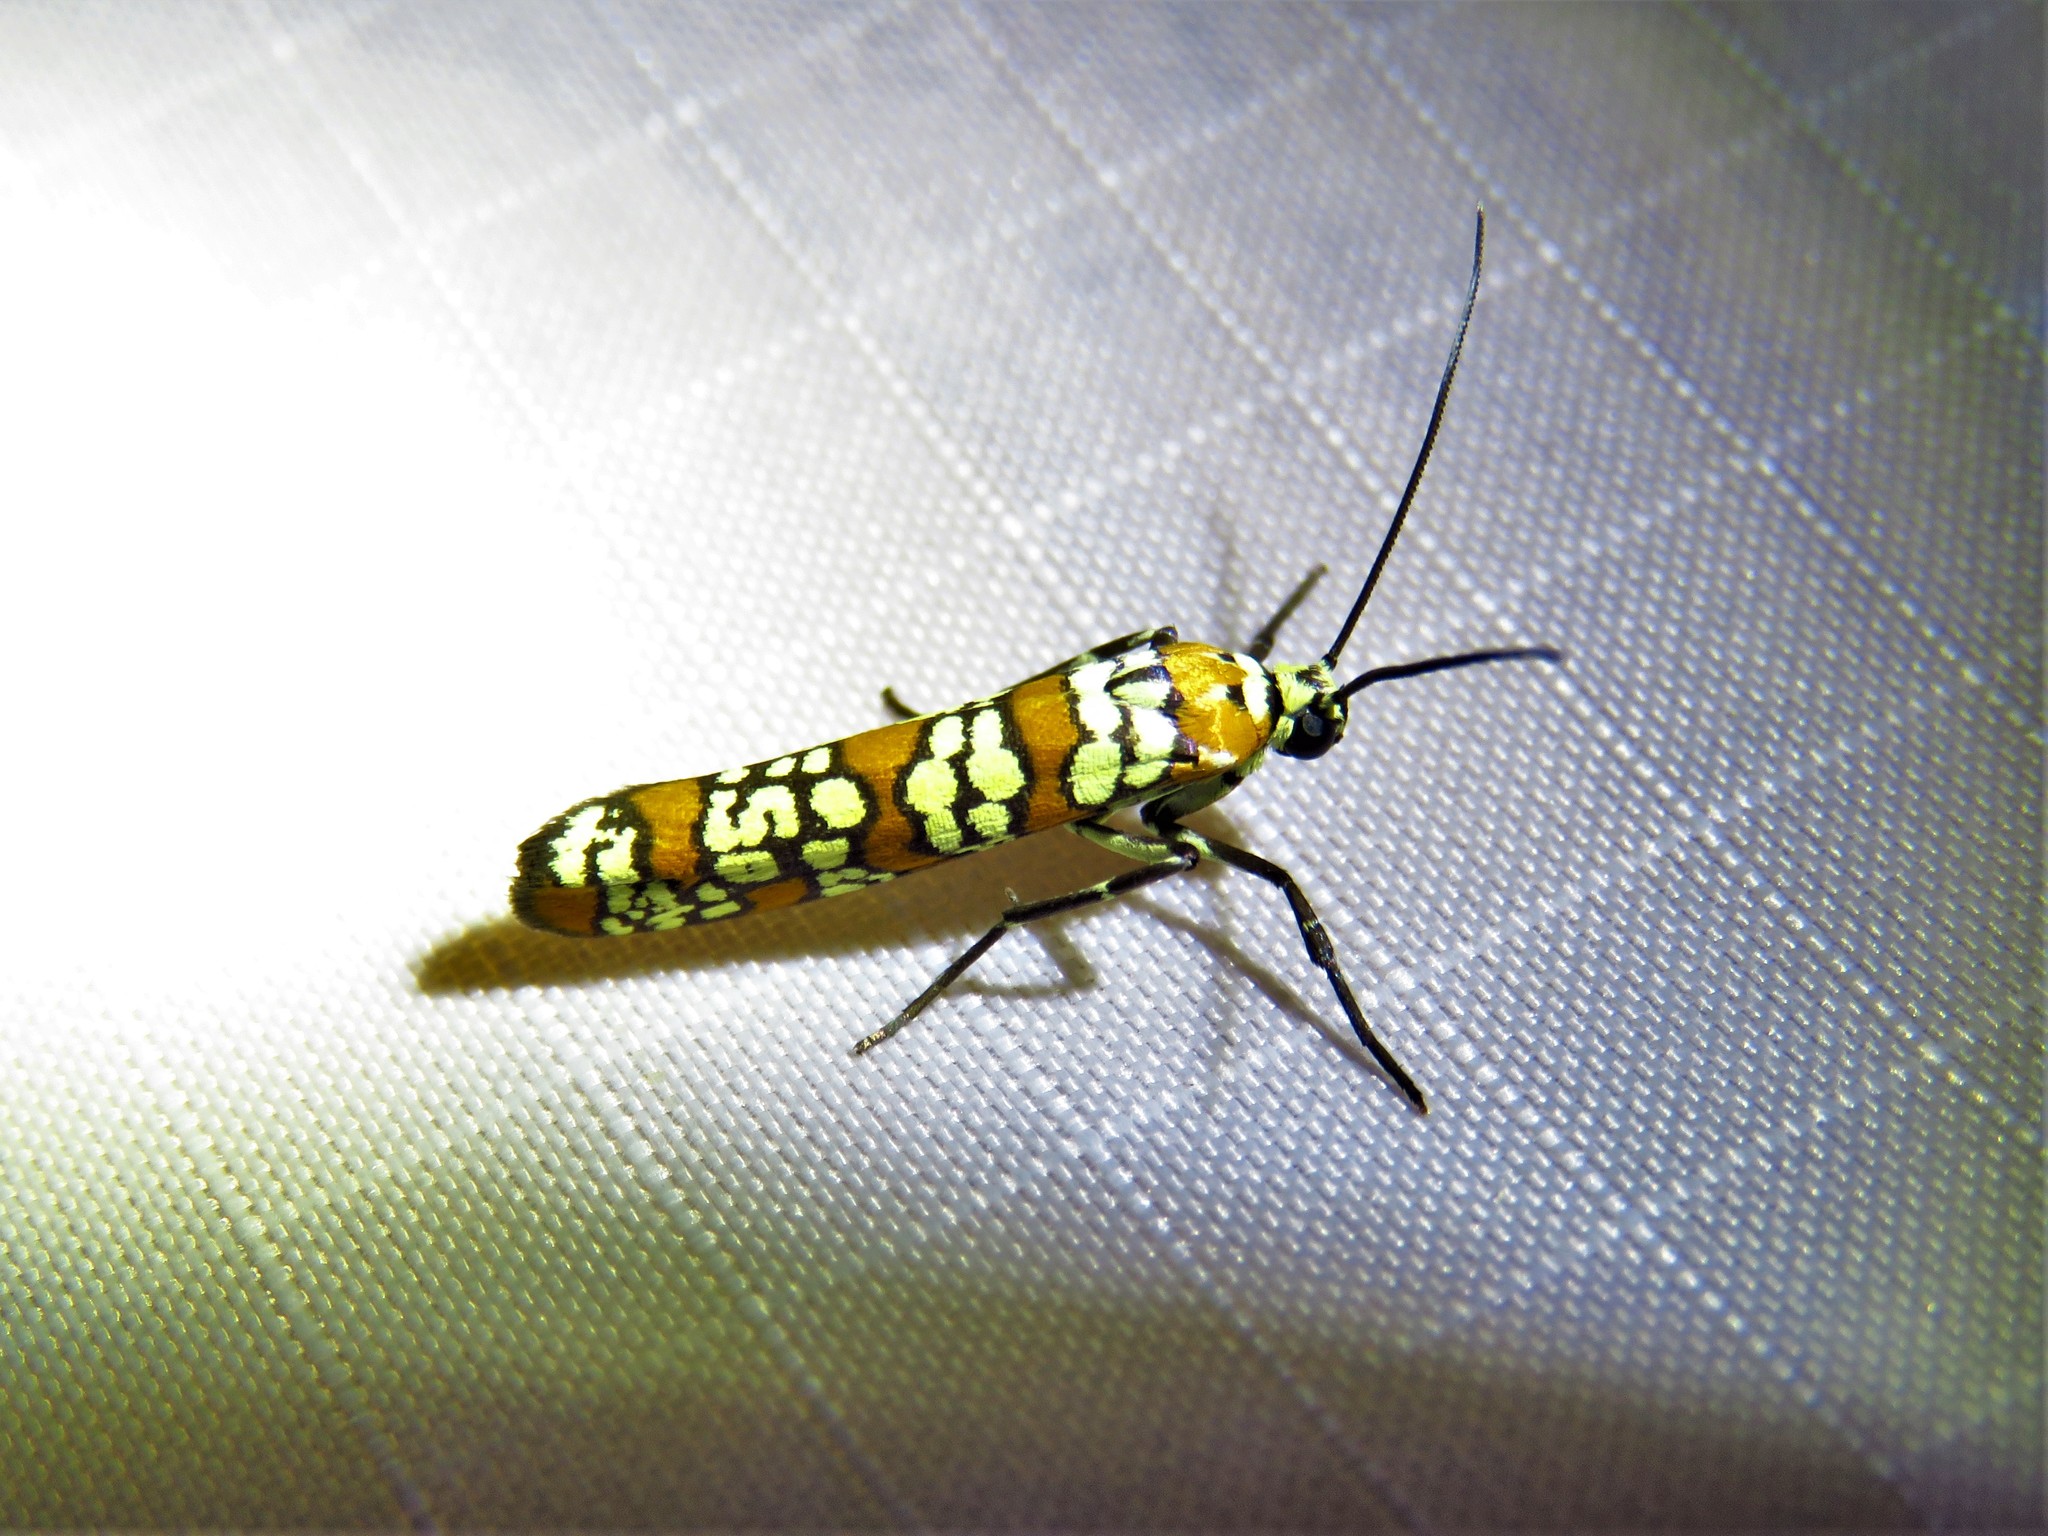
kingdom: Animalia
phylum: Arthropoda
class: Insecta
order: Lepidoptera
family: Attevidae
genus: Atteva
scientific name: Atteva punctella
